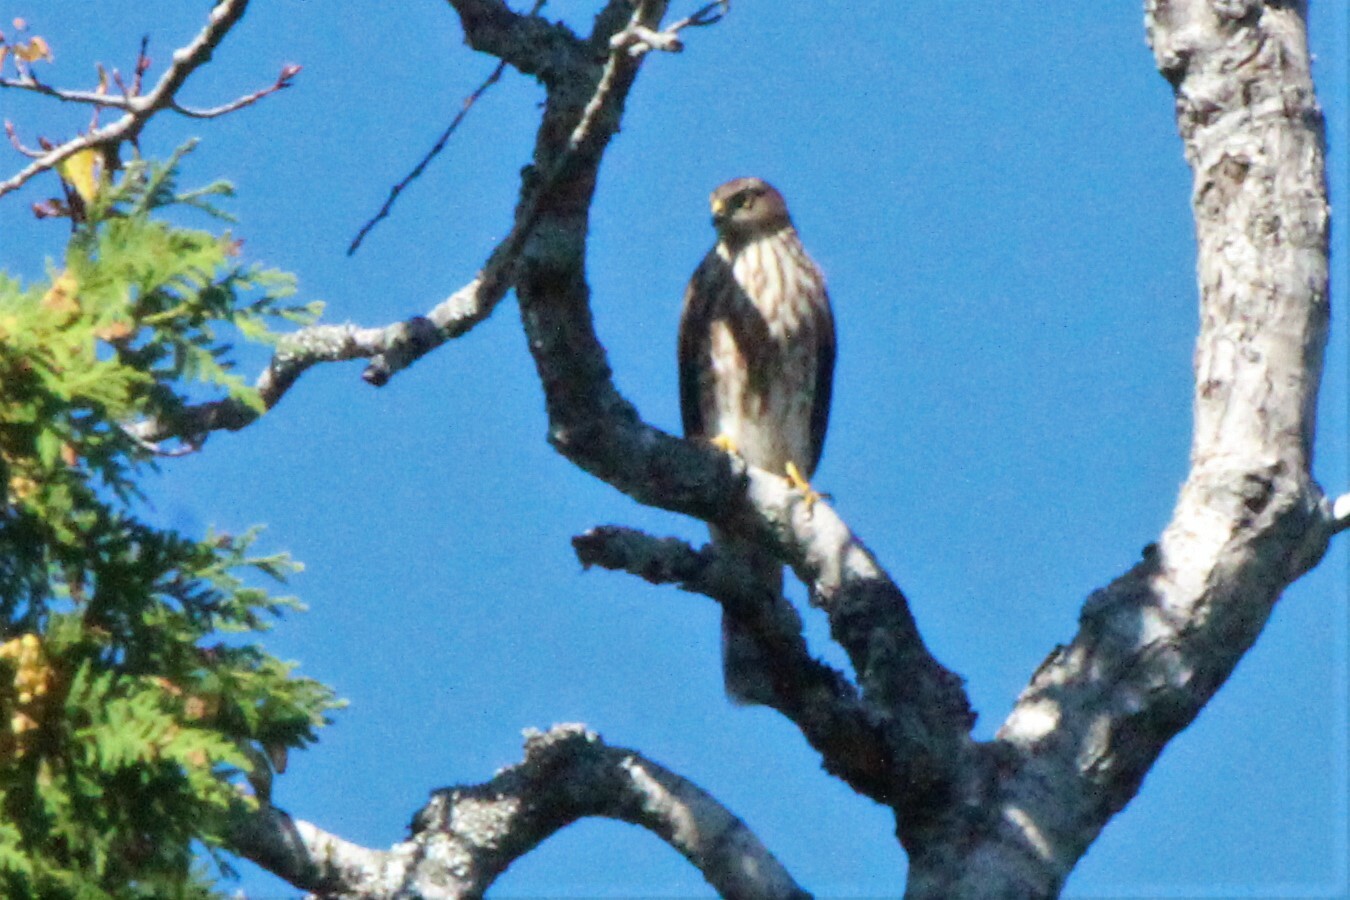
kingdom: Animalia
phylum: Chordata
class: Aves
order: Accipitriformes
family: Accipitridae
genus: Accipiter
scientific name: Accipiter striatus
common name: Sharp-shinned hawk
